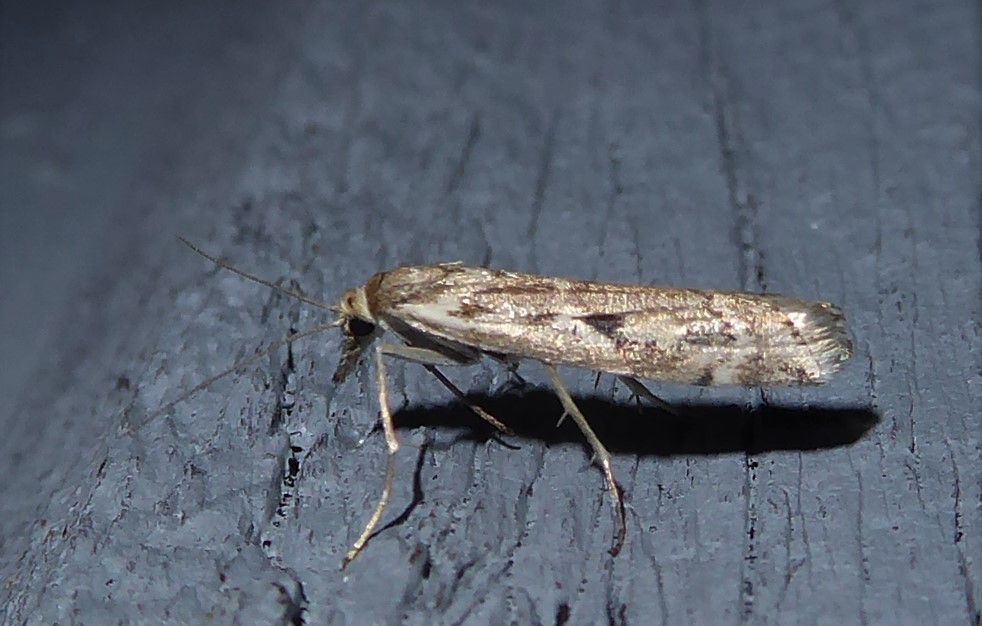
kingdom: Animalia
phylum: Arthropoda
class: Insecta
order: Lepidoptera
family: Crambidae
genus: Orocrambus
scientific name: Orocrambus vulgaris
